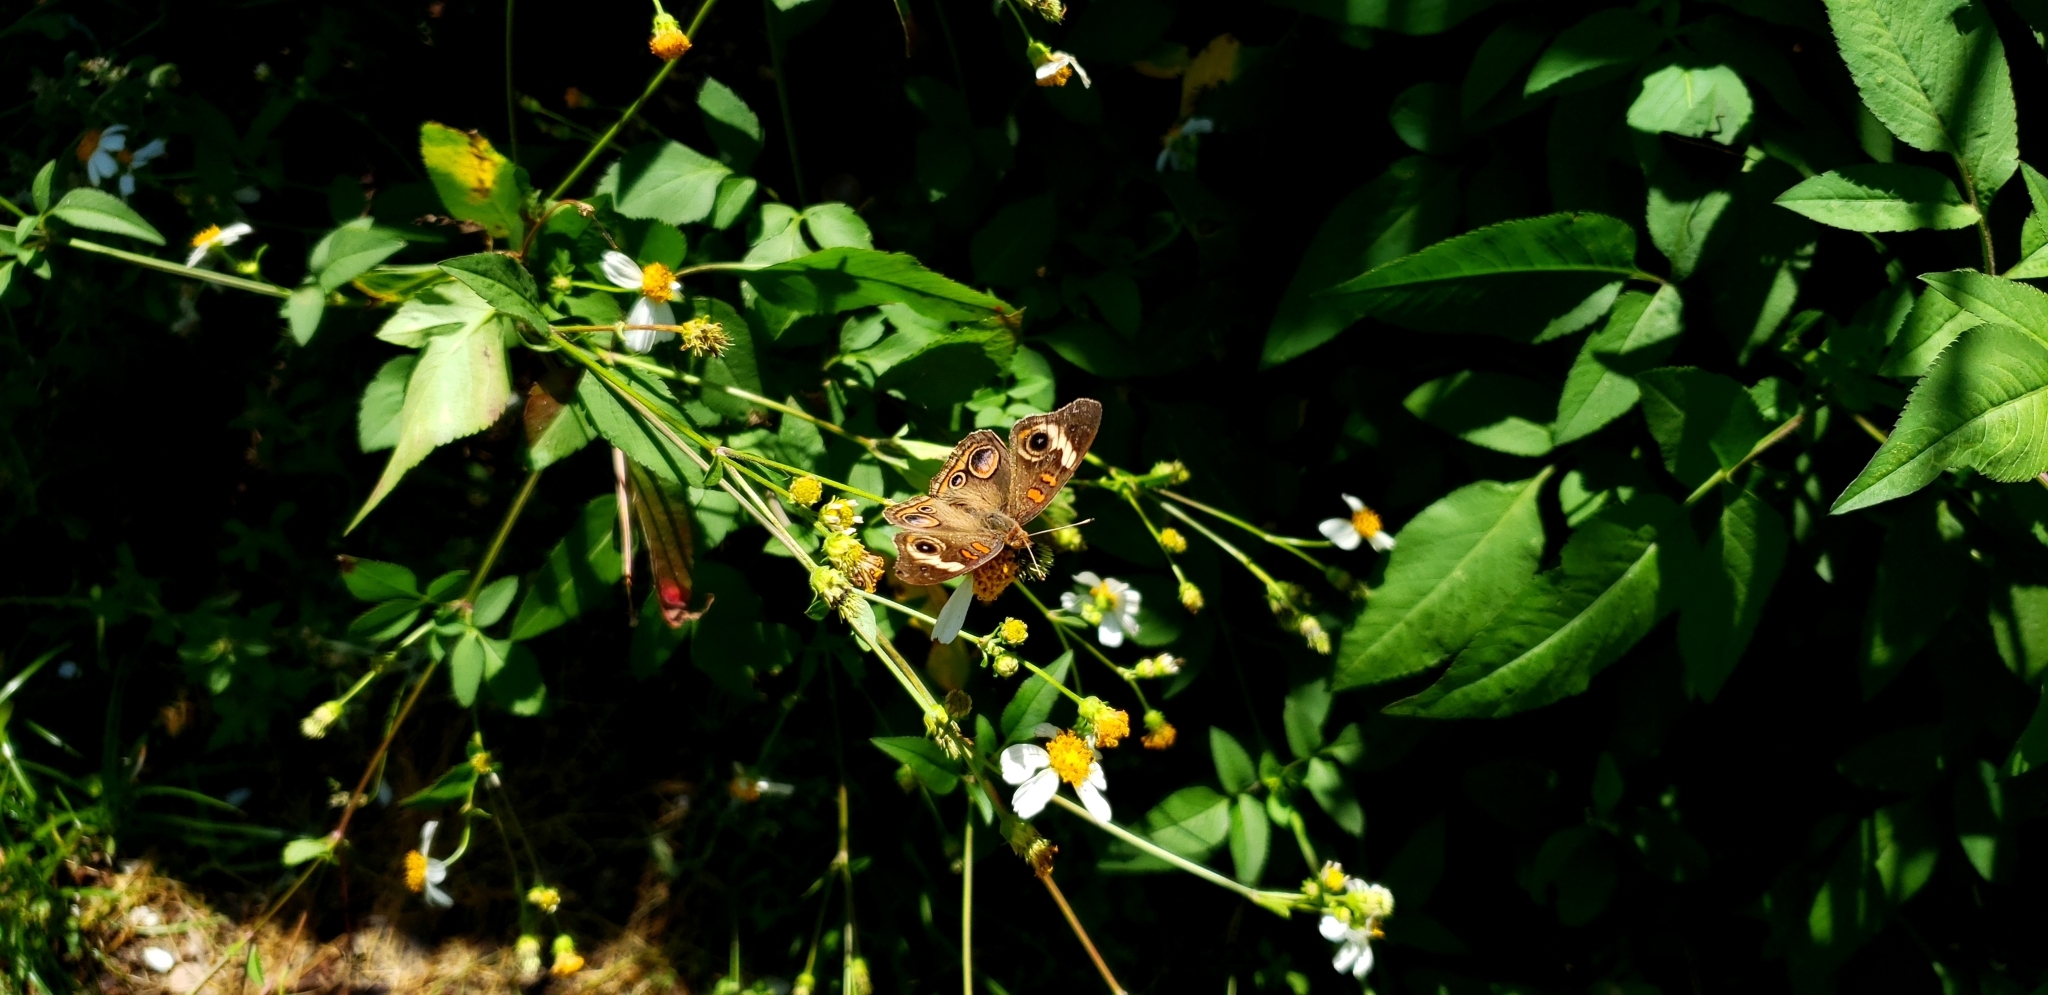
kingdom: Animalia
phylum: Arthropoda
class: Insecta
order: Lepidoptera
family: Nymphalidae
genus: Junonia
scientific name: Junonia coenia
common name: Common buckeye
